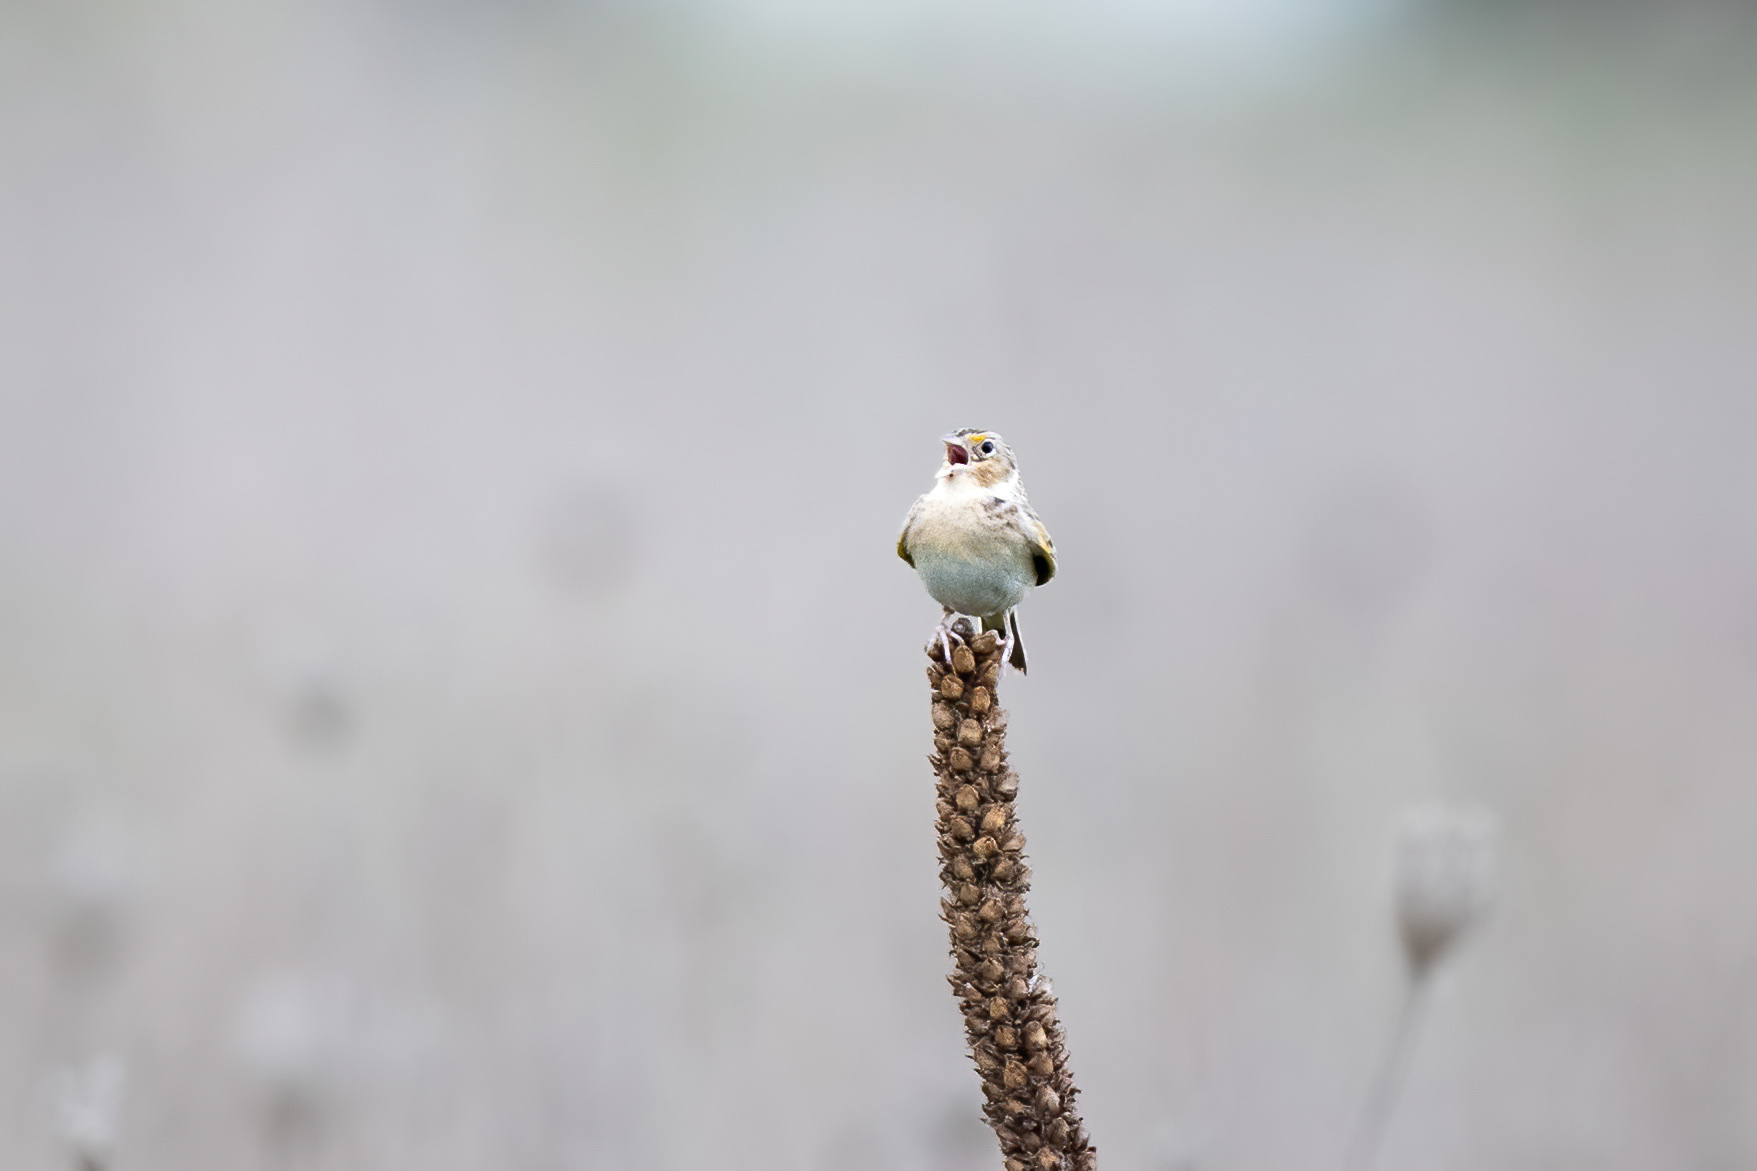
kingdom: Animalia
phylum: Chordata
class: Aves
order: Passeriformes
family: Passerellidae
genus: Ammodramus
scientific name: Ammodramus savannarum
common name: Grasshopper sparrow
